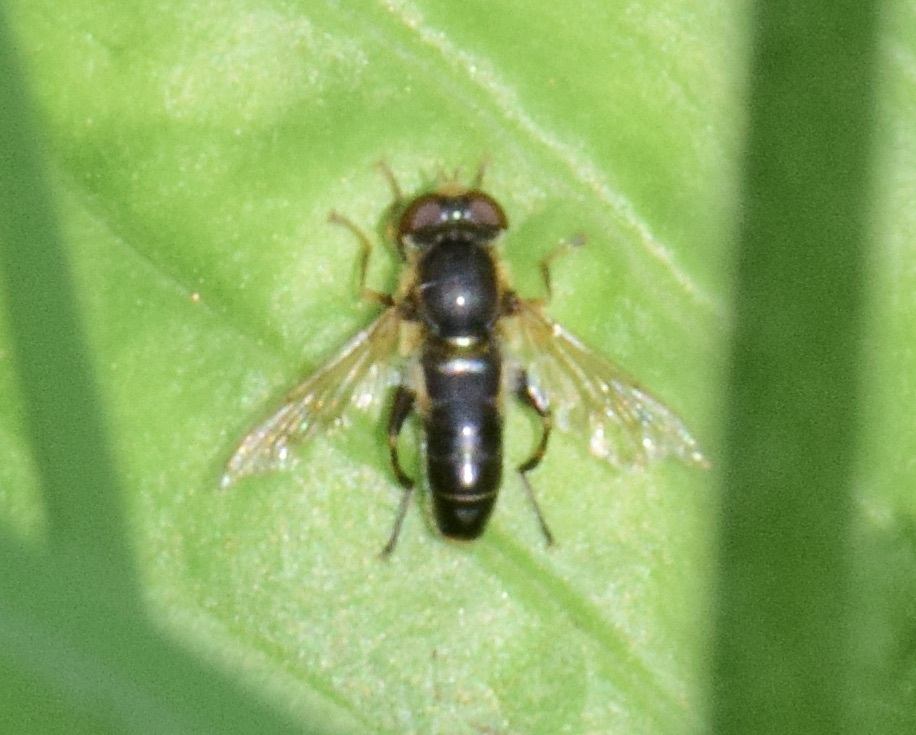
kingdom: Animalia
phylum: Arthropoda
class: Insecta
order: Diptera
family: Syrphidae
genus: Anasimyia
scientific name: Anasimyia bilinearis
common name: Two-lined swamp fly
